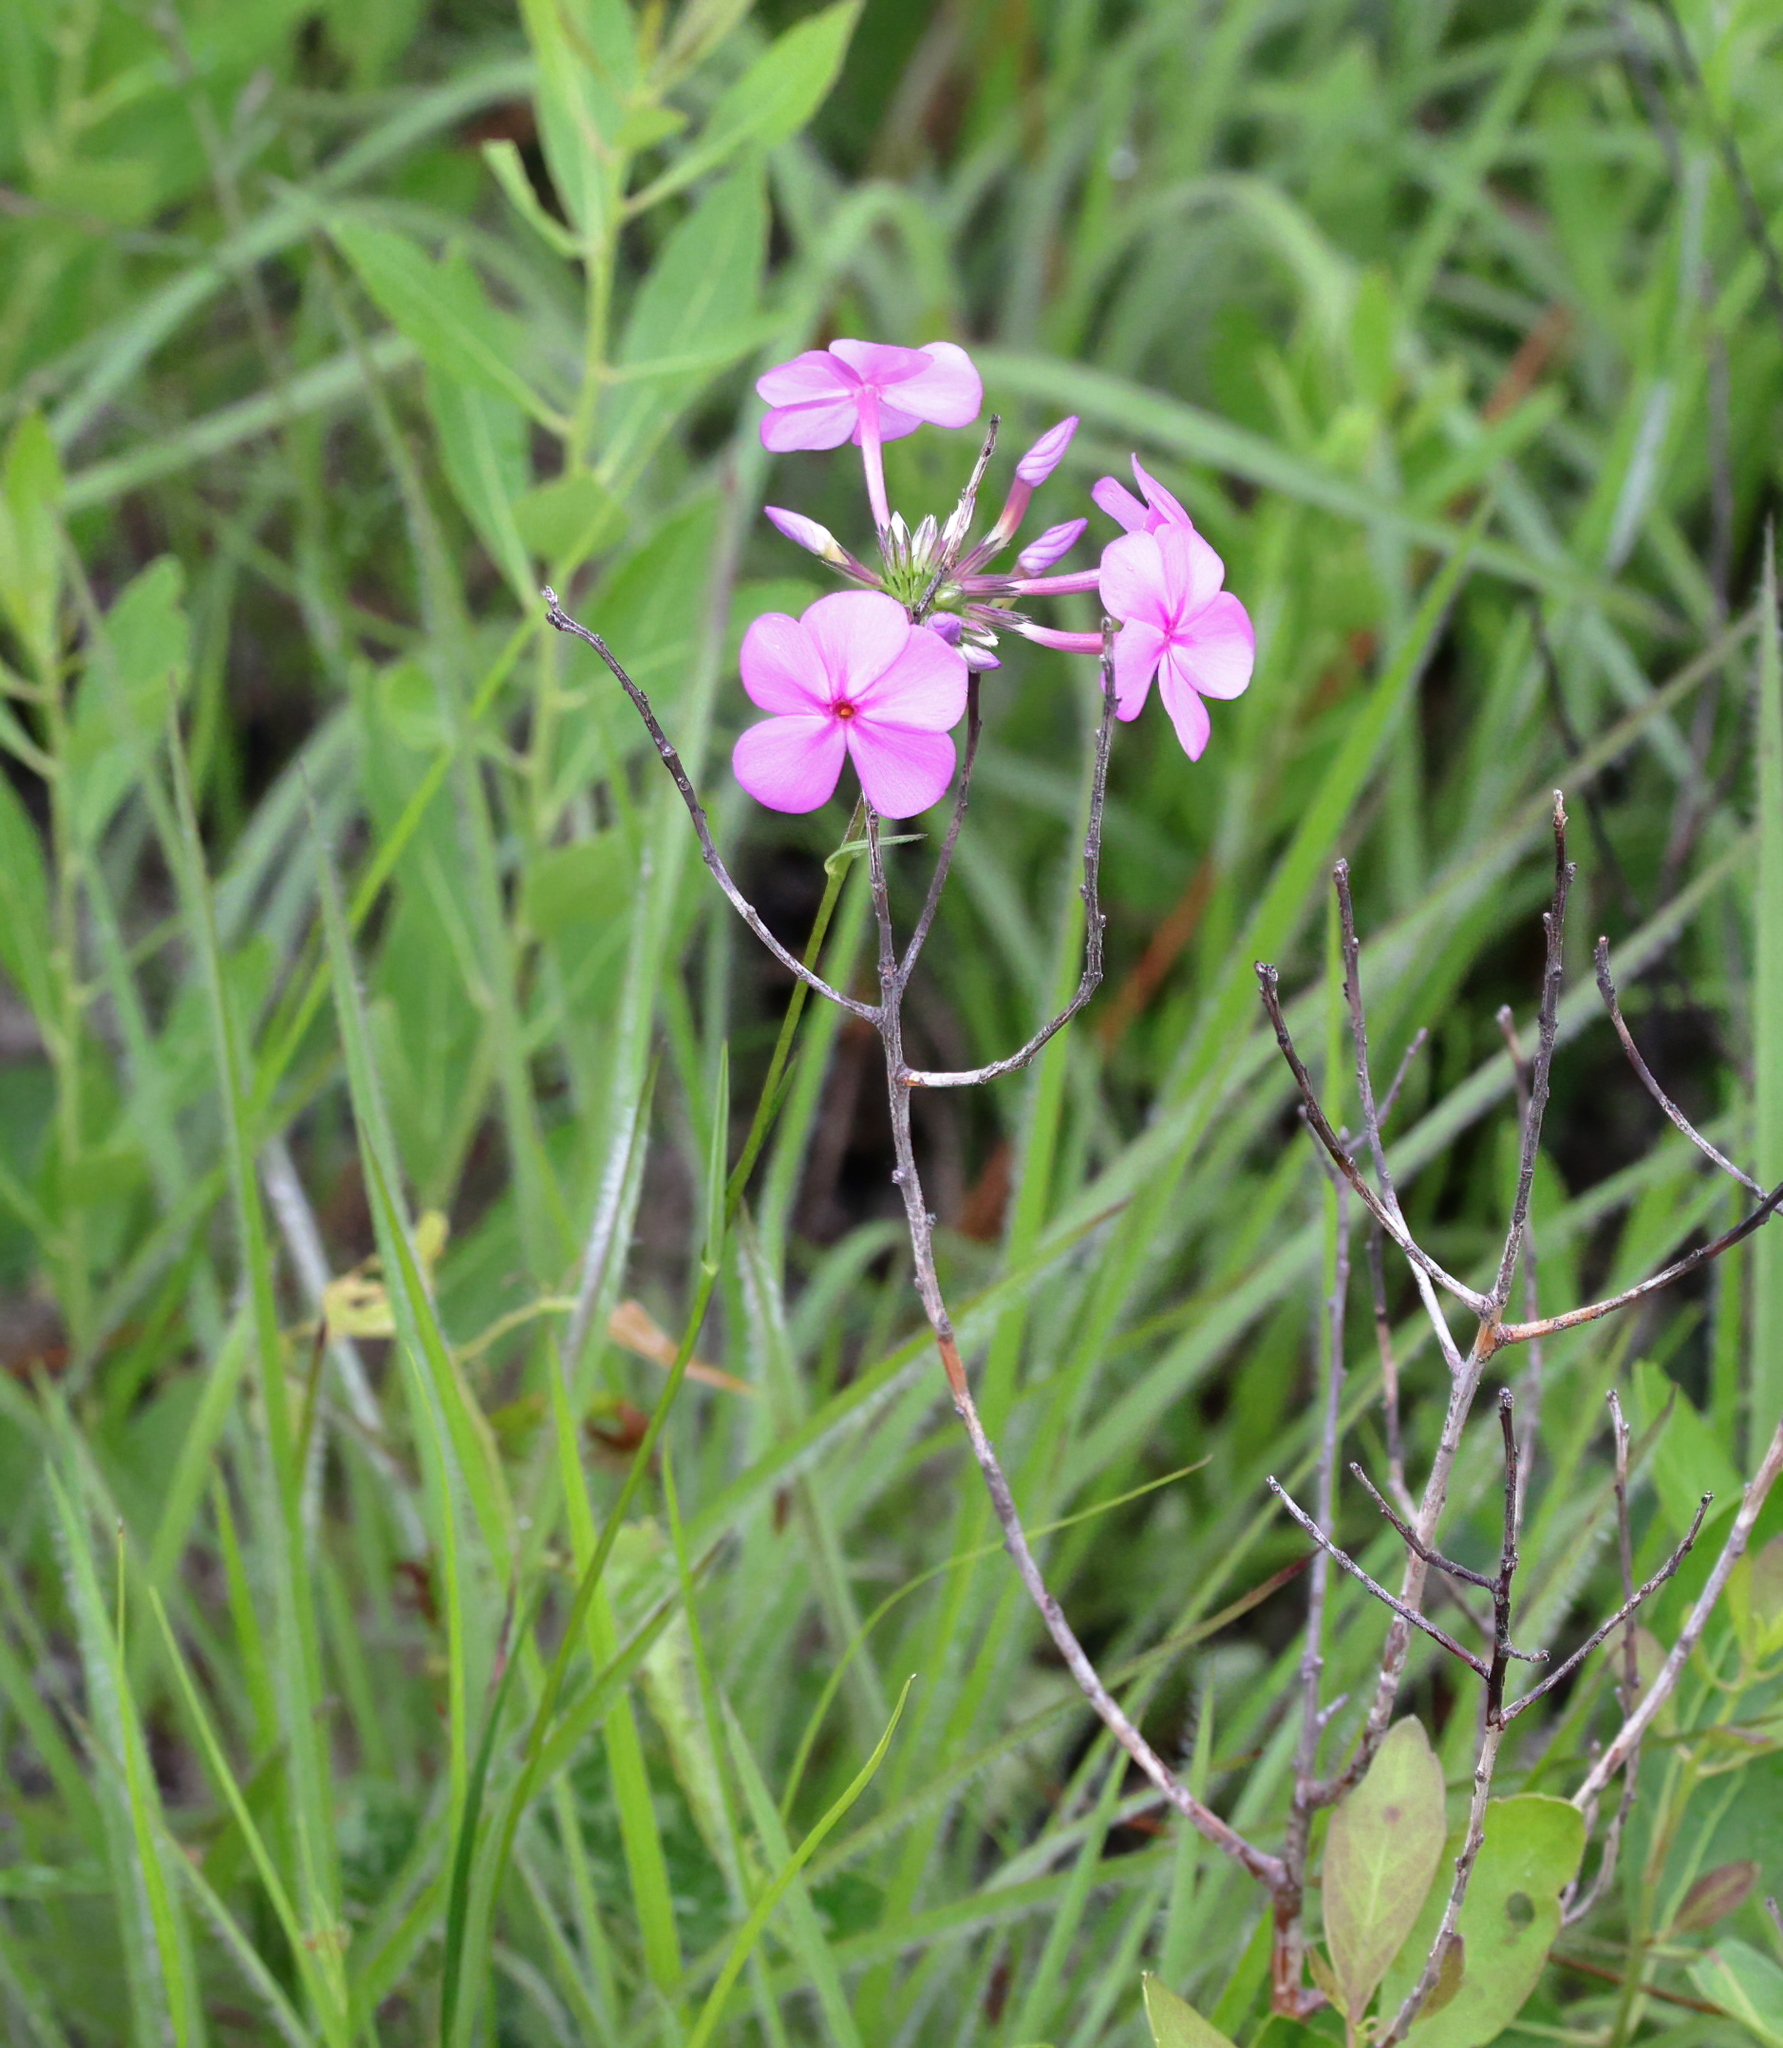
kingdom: Plantae
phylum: Tracheophyta
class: Magnoliopsida
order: Ericales
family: Polemoniaceae
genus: Phlox
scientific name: Phlox carolina
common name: Thick-leaf phlox
